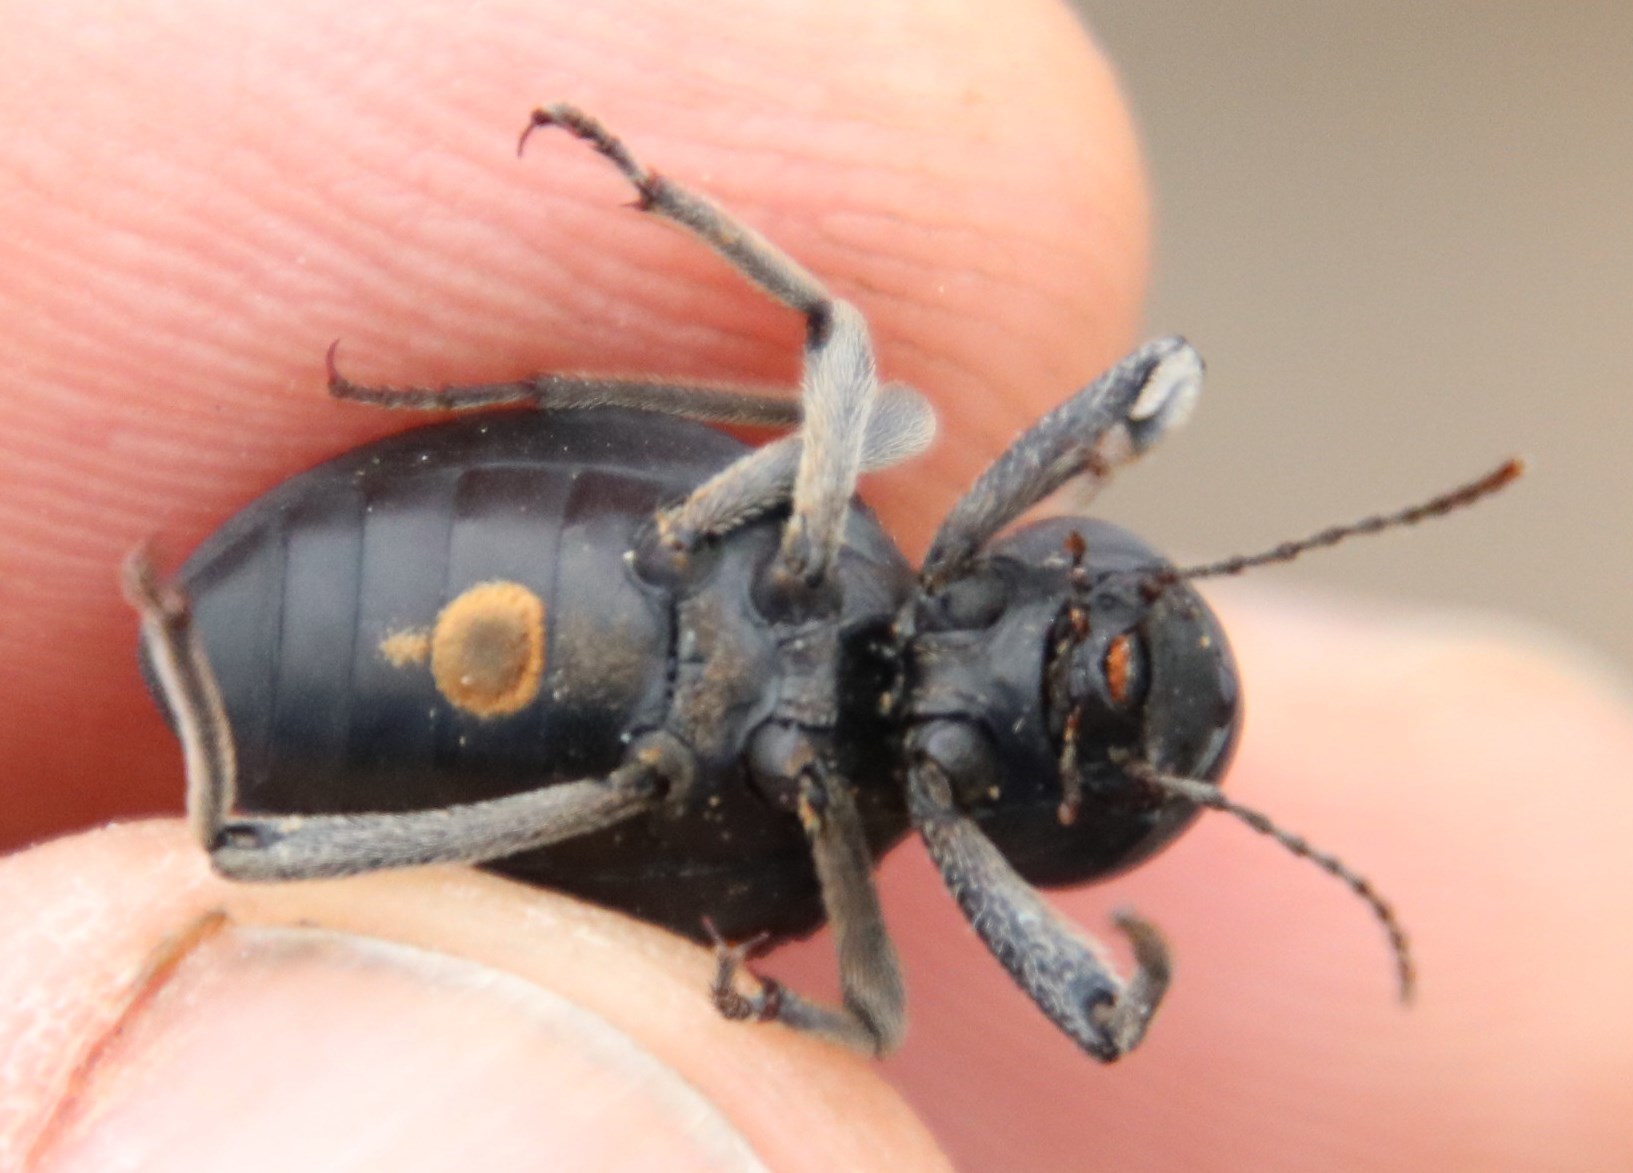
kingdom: Animalia
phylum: Arthropoda
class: Insecta
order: Coleoptera
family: Tenebrionidae
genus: Moluris
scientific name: Moluris strigosa
